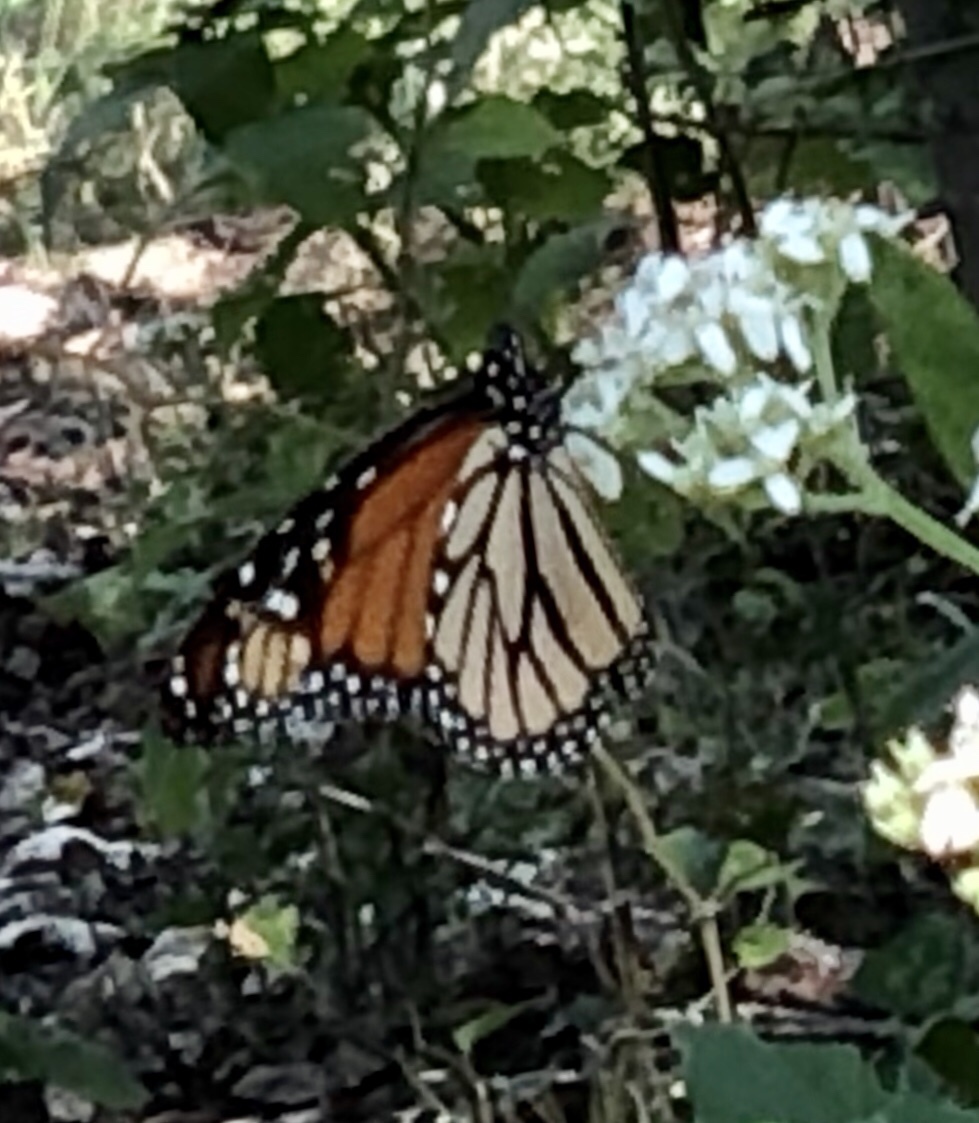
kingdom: Animalia
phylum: Arthropoda
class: Insecta
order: Lepidoptera
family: Nymphalidae
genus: Danaus
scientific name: Danaus plexippus
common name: Monarch
